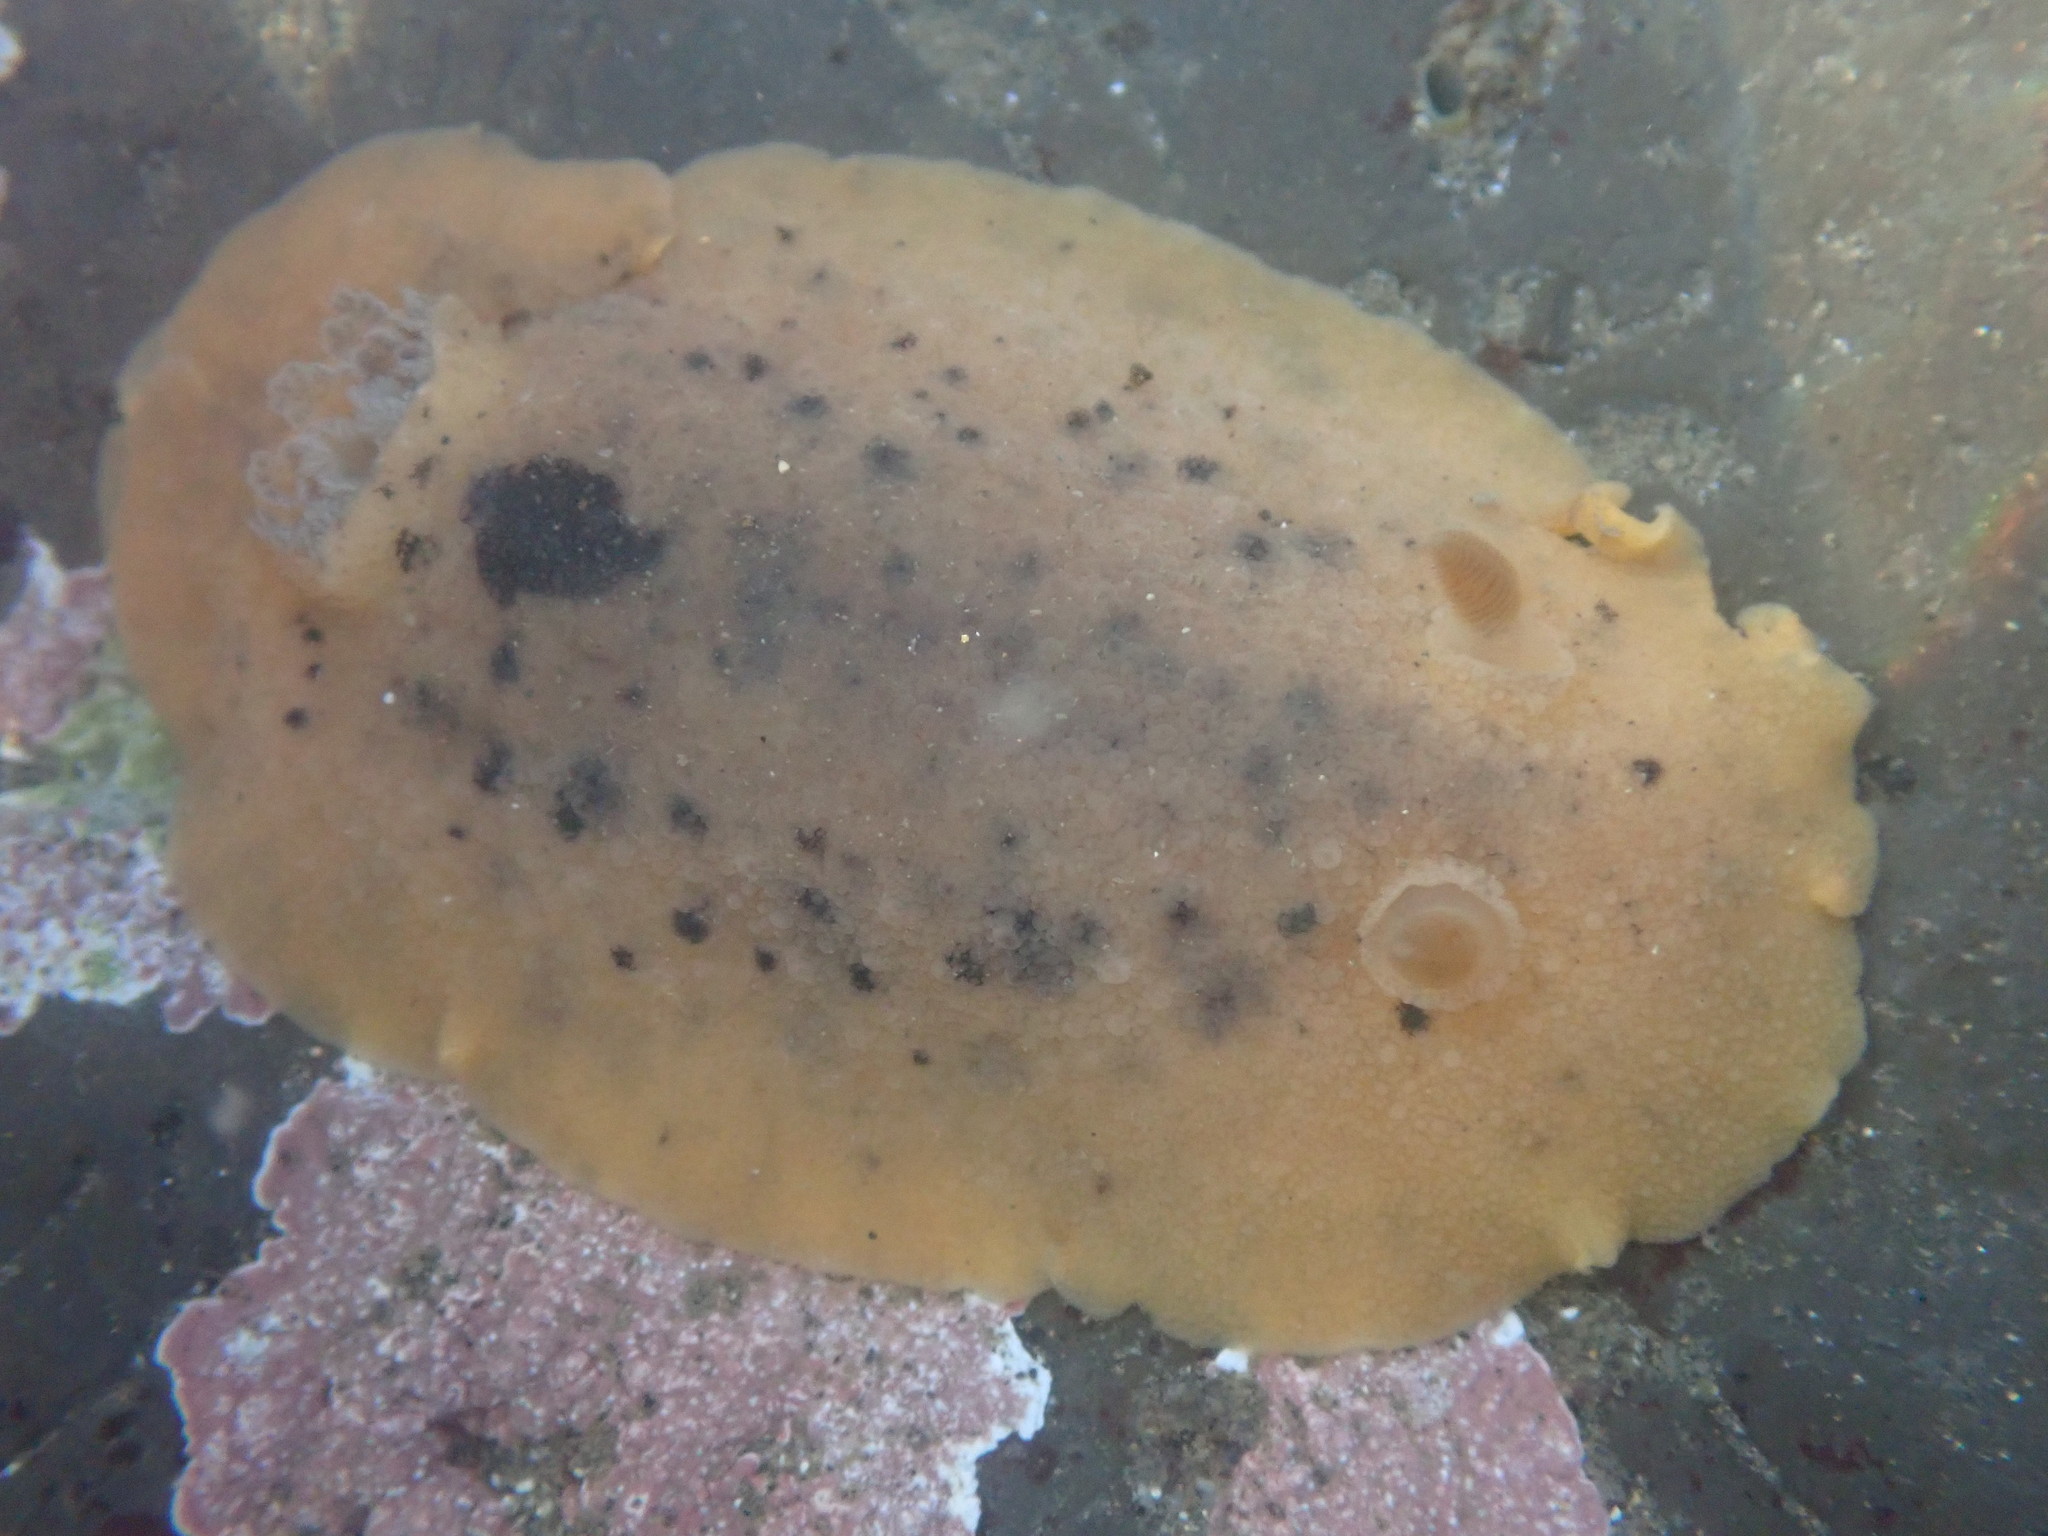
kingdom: Animalia
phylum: Mollusca
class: Gastropoda
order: Nudibranchia
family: Discodorididae
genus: Geitodoris
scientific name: Geitodoris heathi
